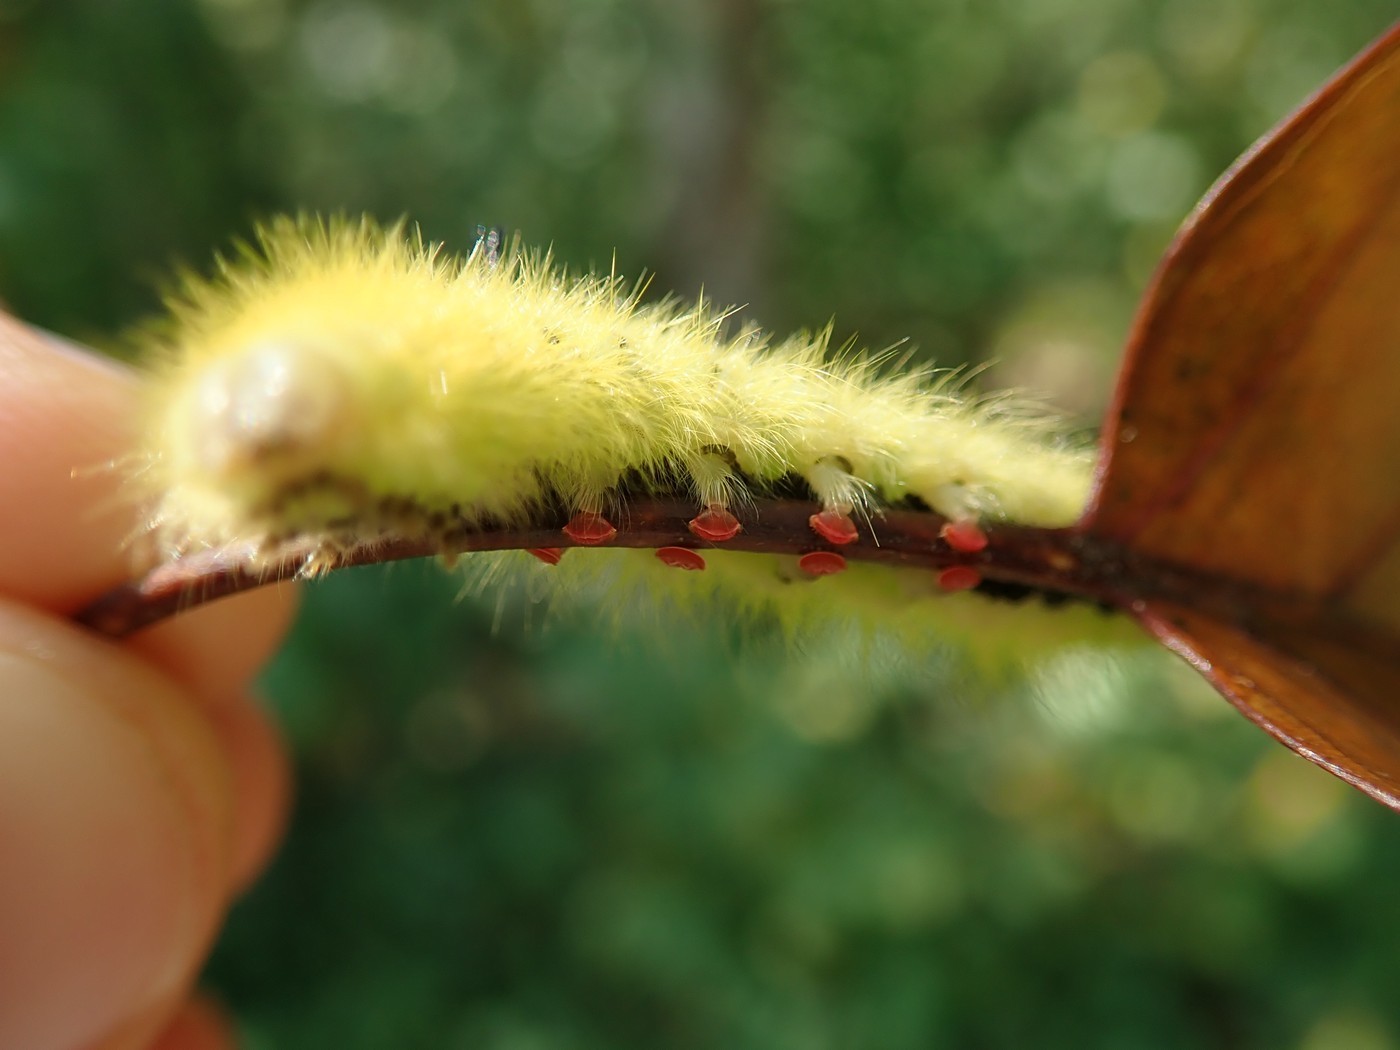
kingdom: Animalia
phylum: Arthropoda
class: Insecta
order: Lepidoptera
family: Apatelodidae
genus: Hygrochroa
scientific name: Hygrochroa Apatelodes torrefacta
